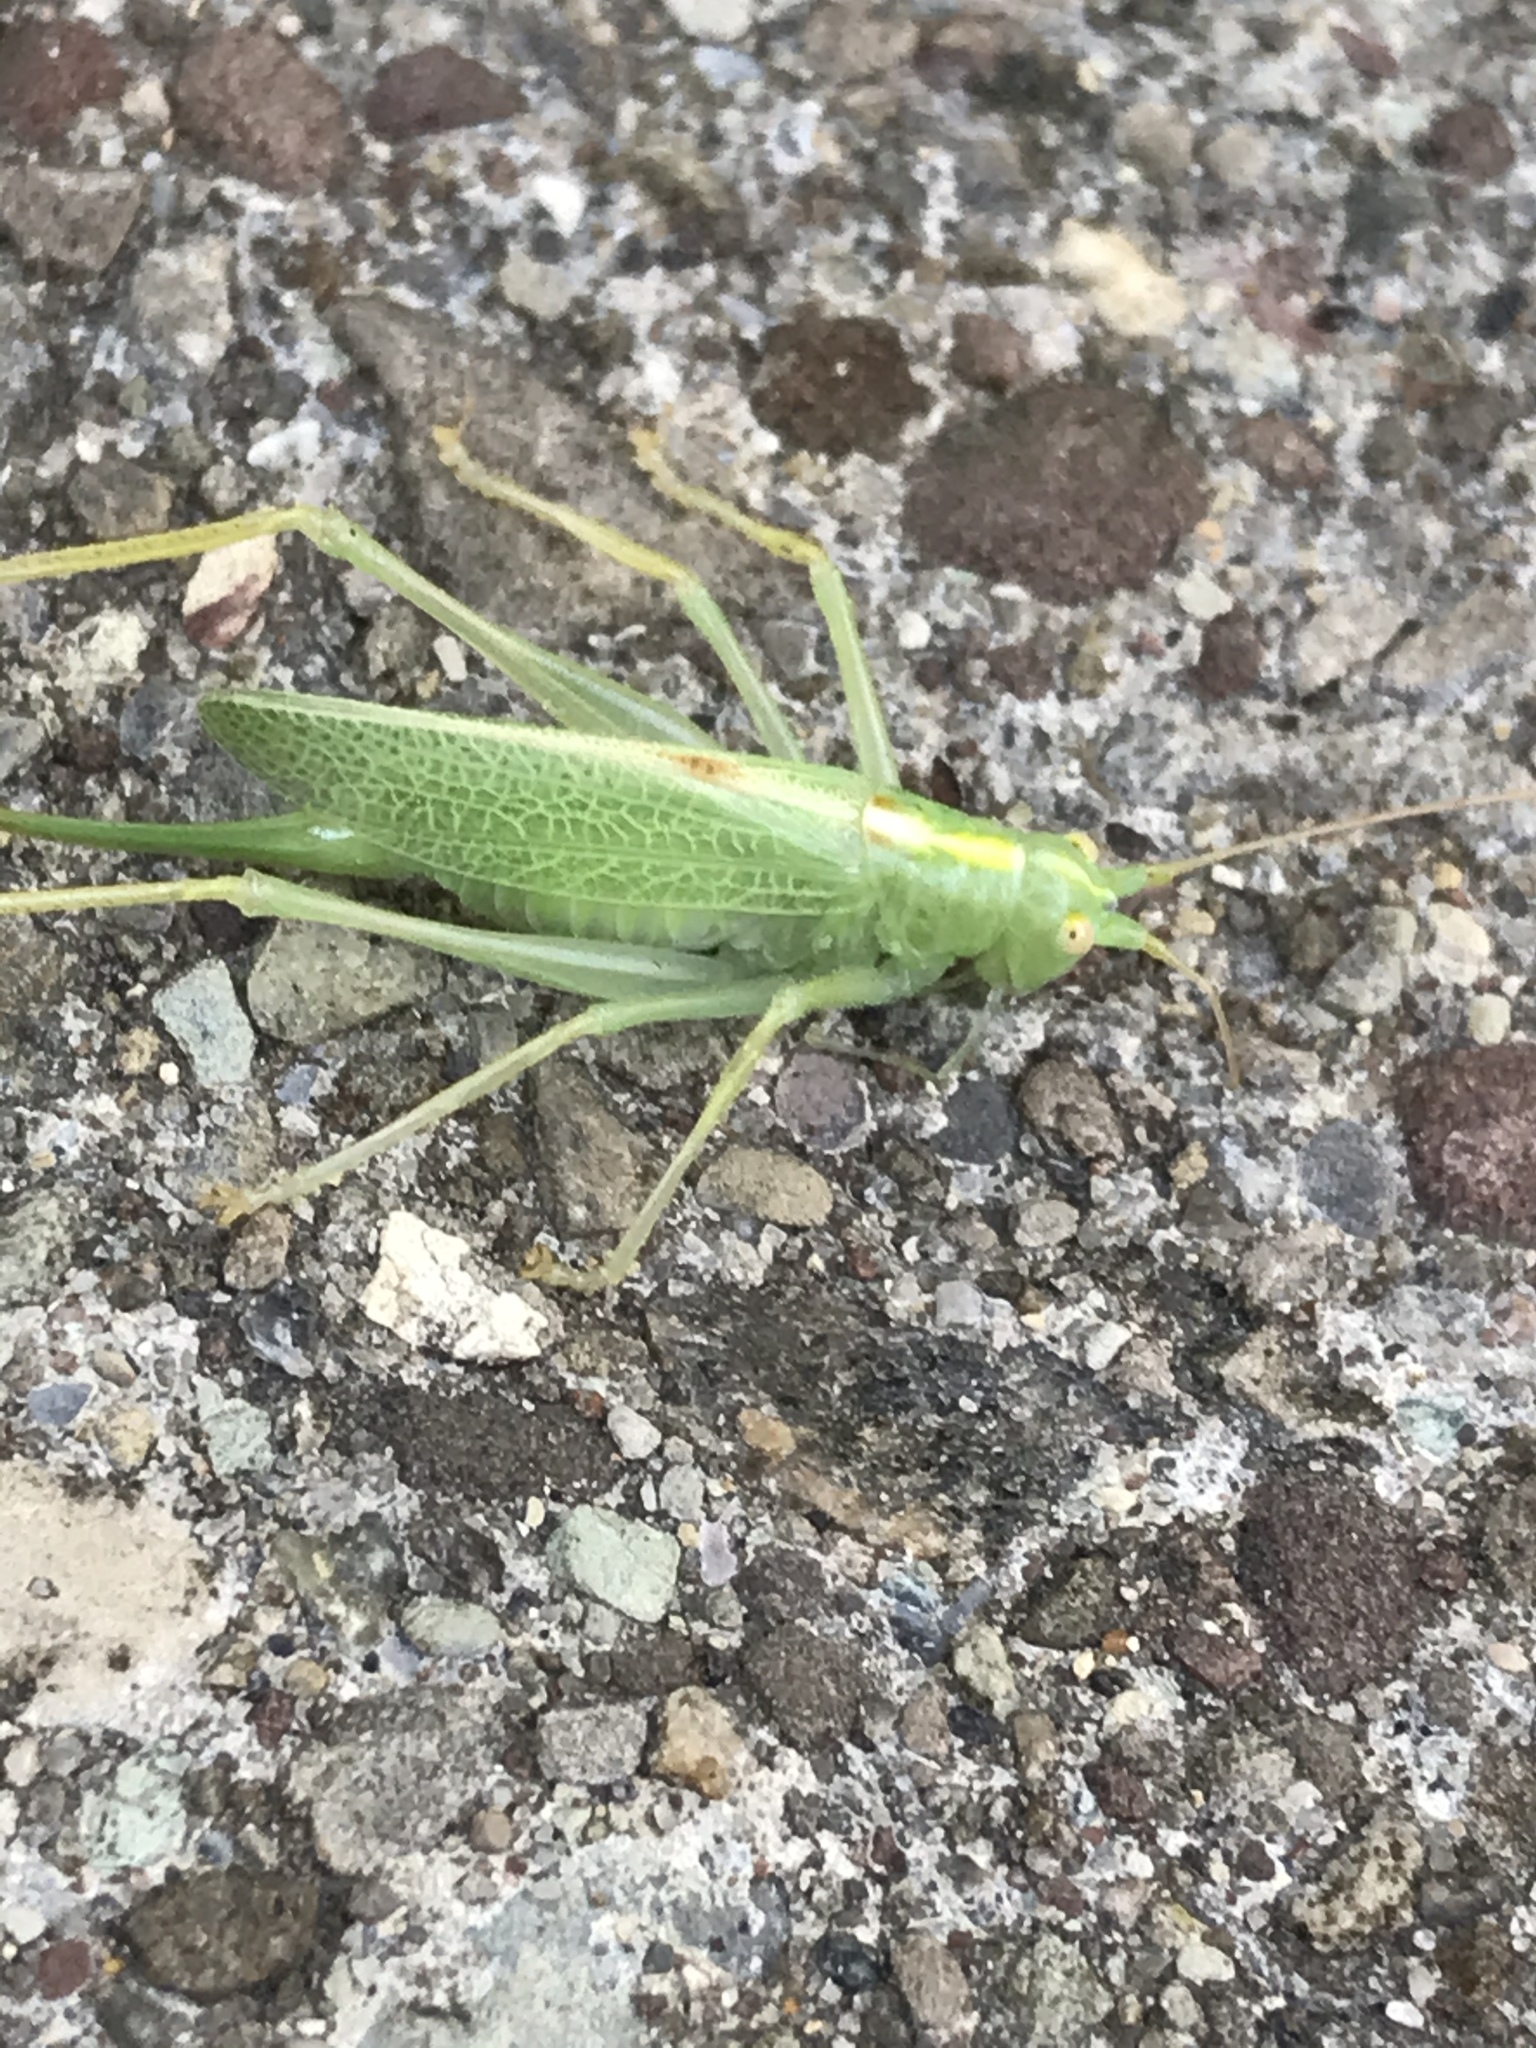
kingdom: Animalia
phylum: Arthropoda
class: Insecta
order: Orthoptera
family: Tettigoniidae
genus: Meconema
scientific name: Meconema thalassinum
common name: Oak bush-cricket
